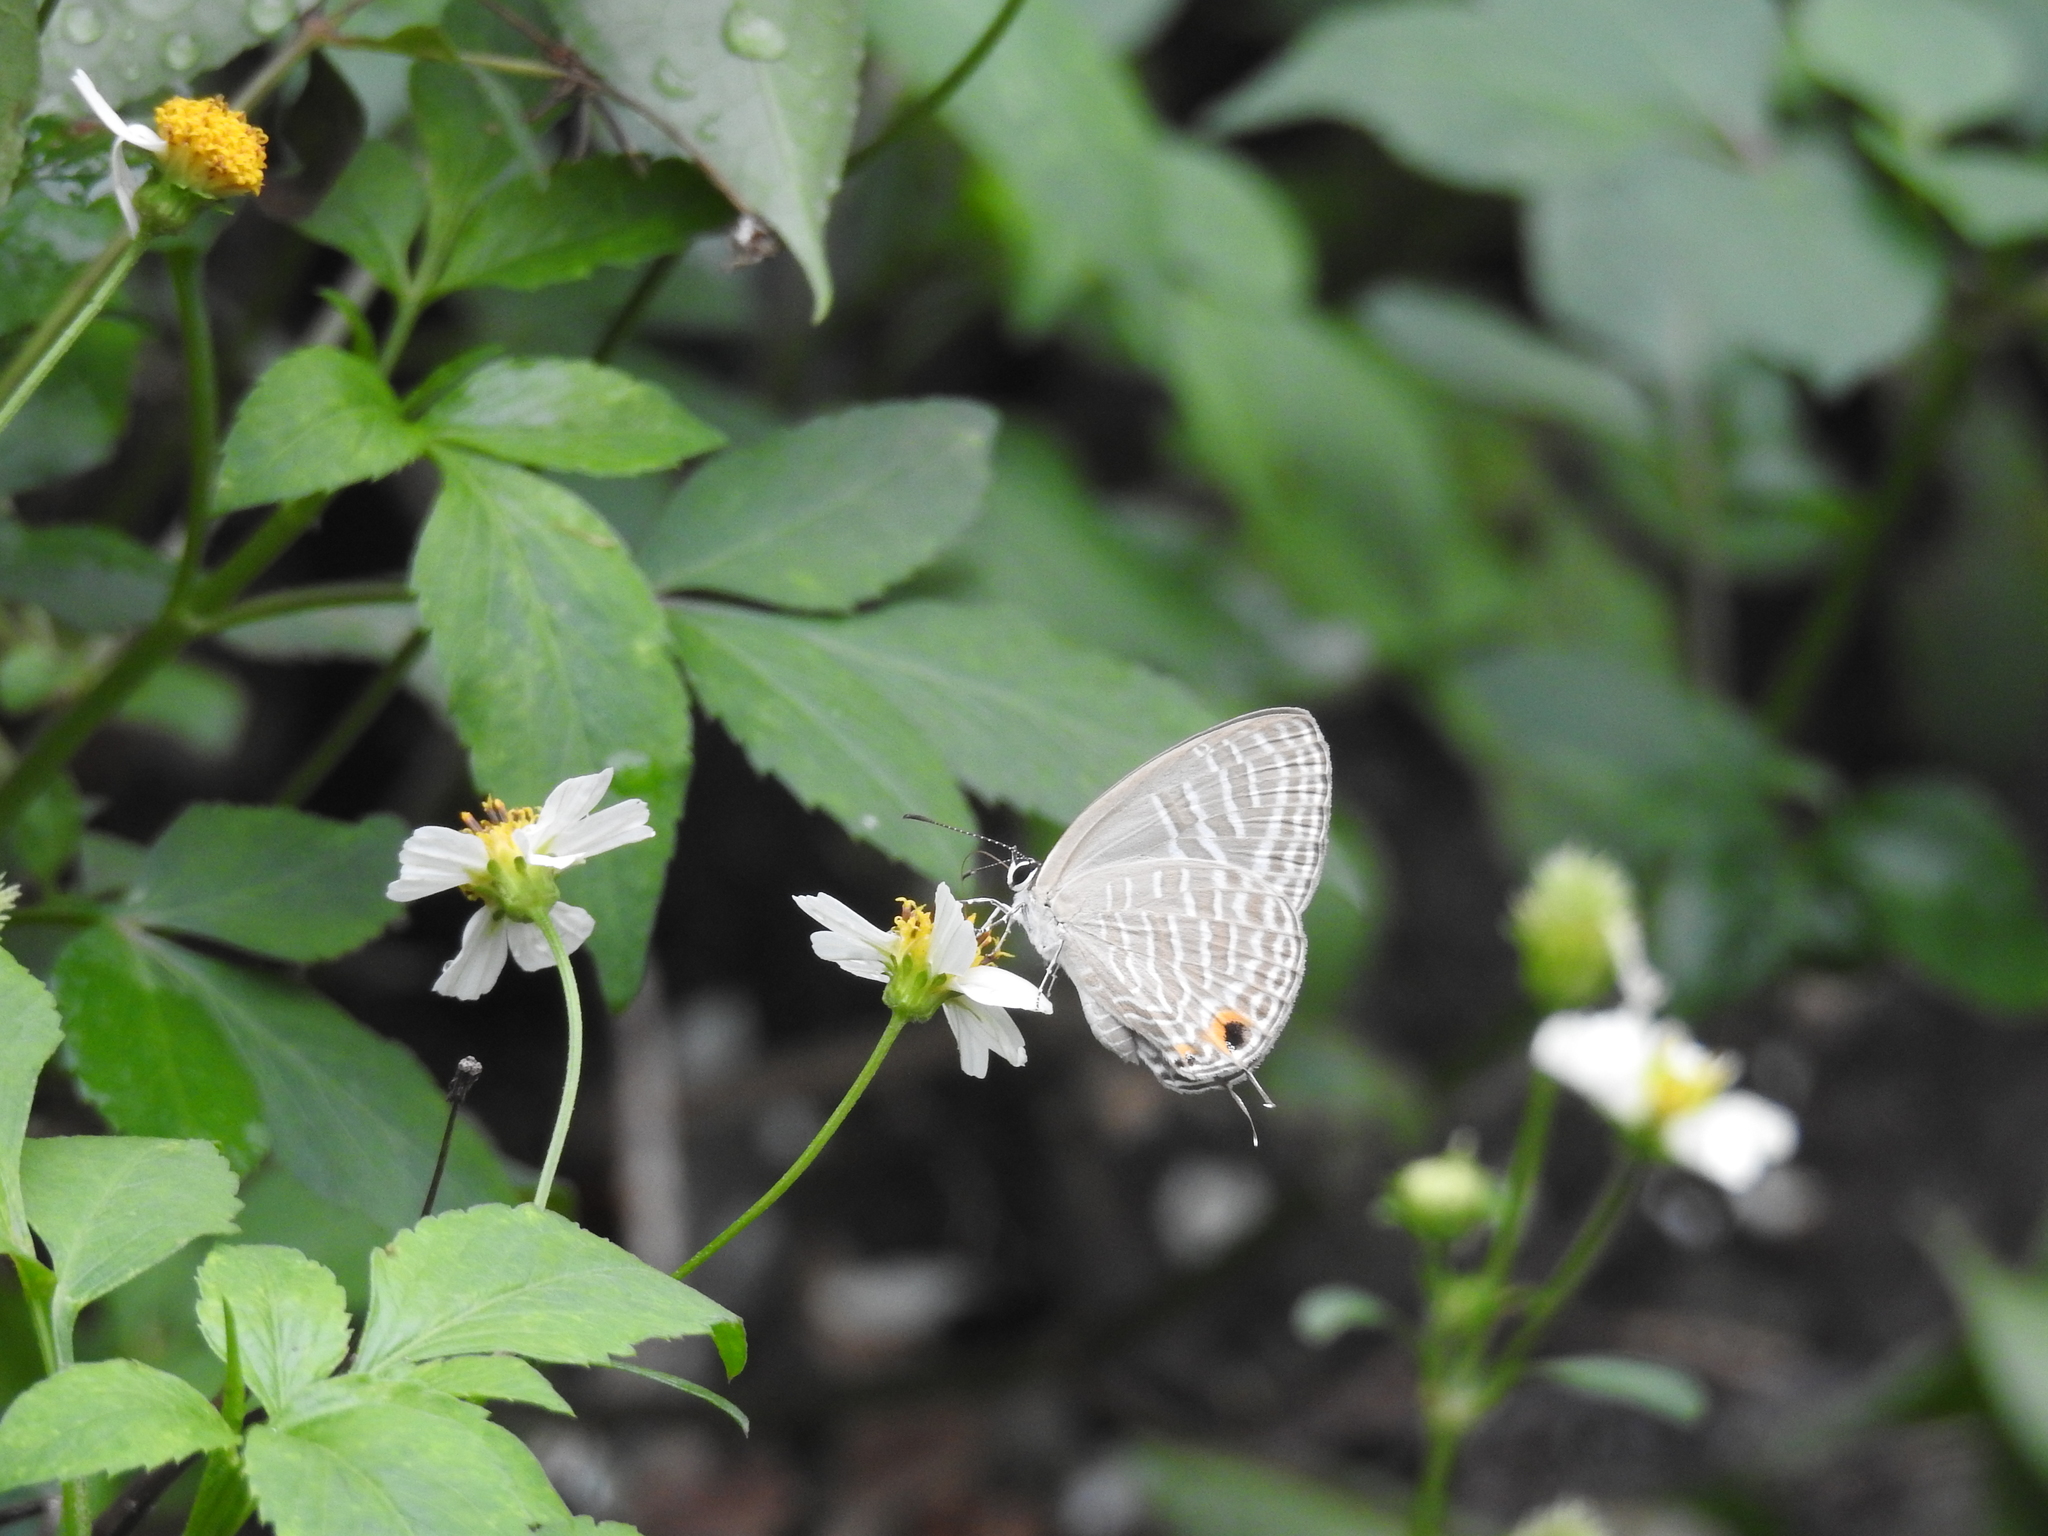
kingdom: Animalia
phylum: Arthropoda
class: Insecta
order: Lepidoptera
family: Lycaenidae
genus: Jamides
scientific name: Jamides alecto
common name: Metallic cerulean
